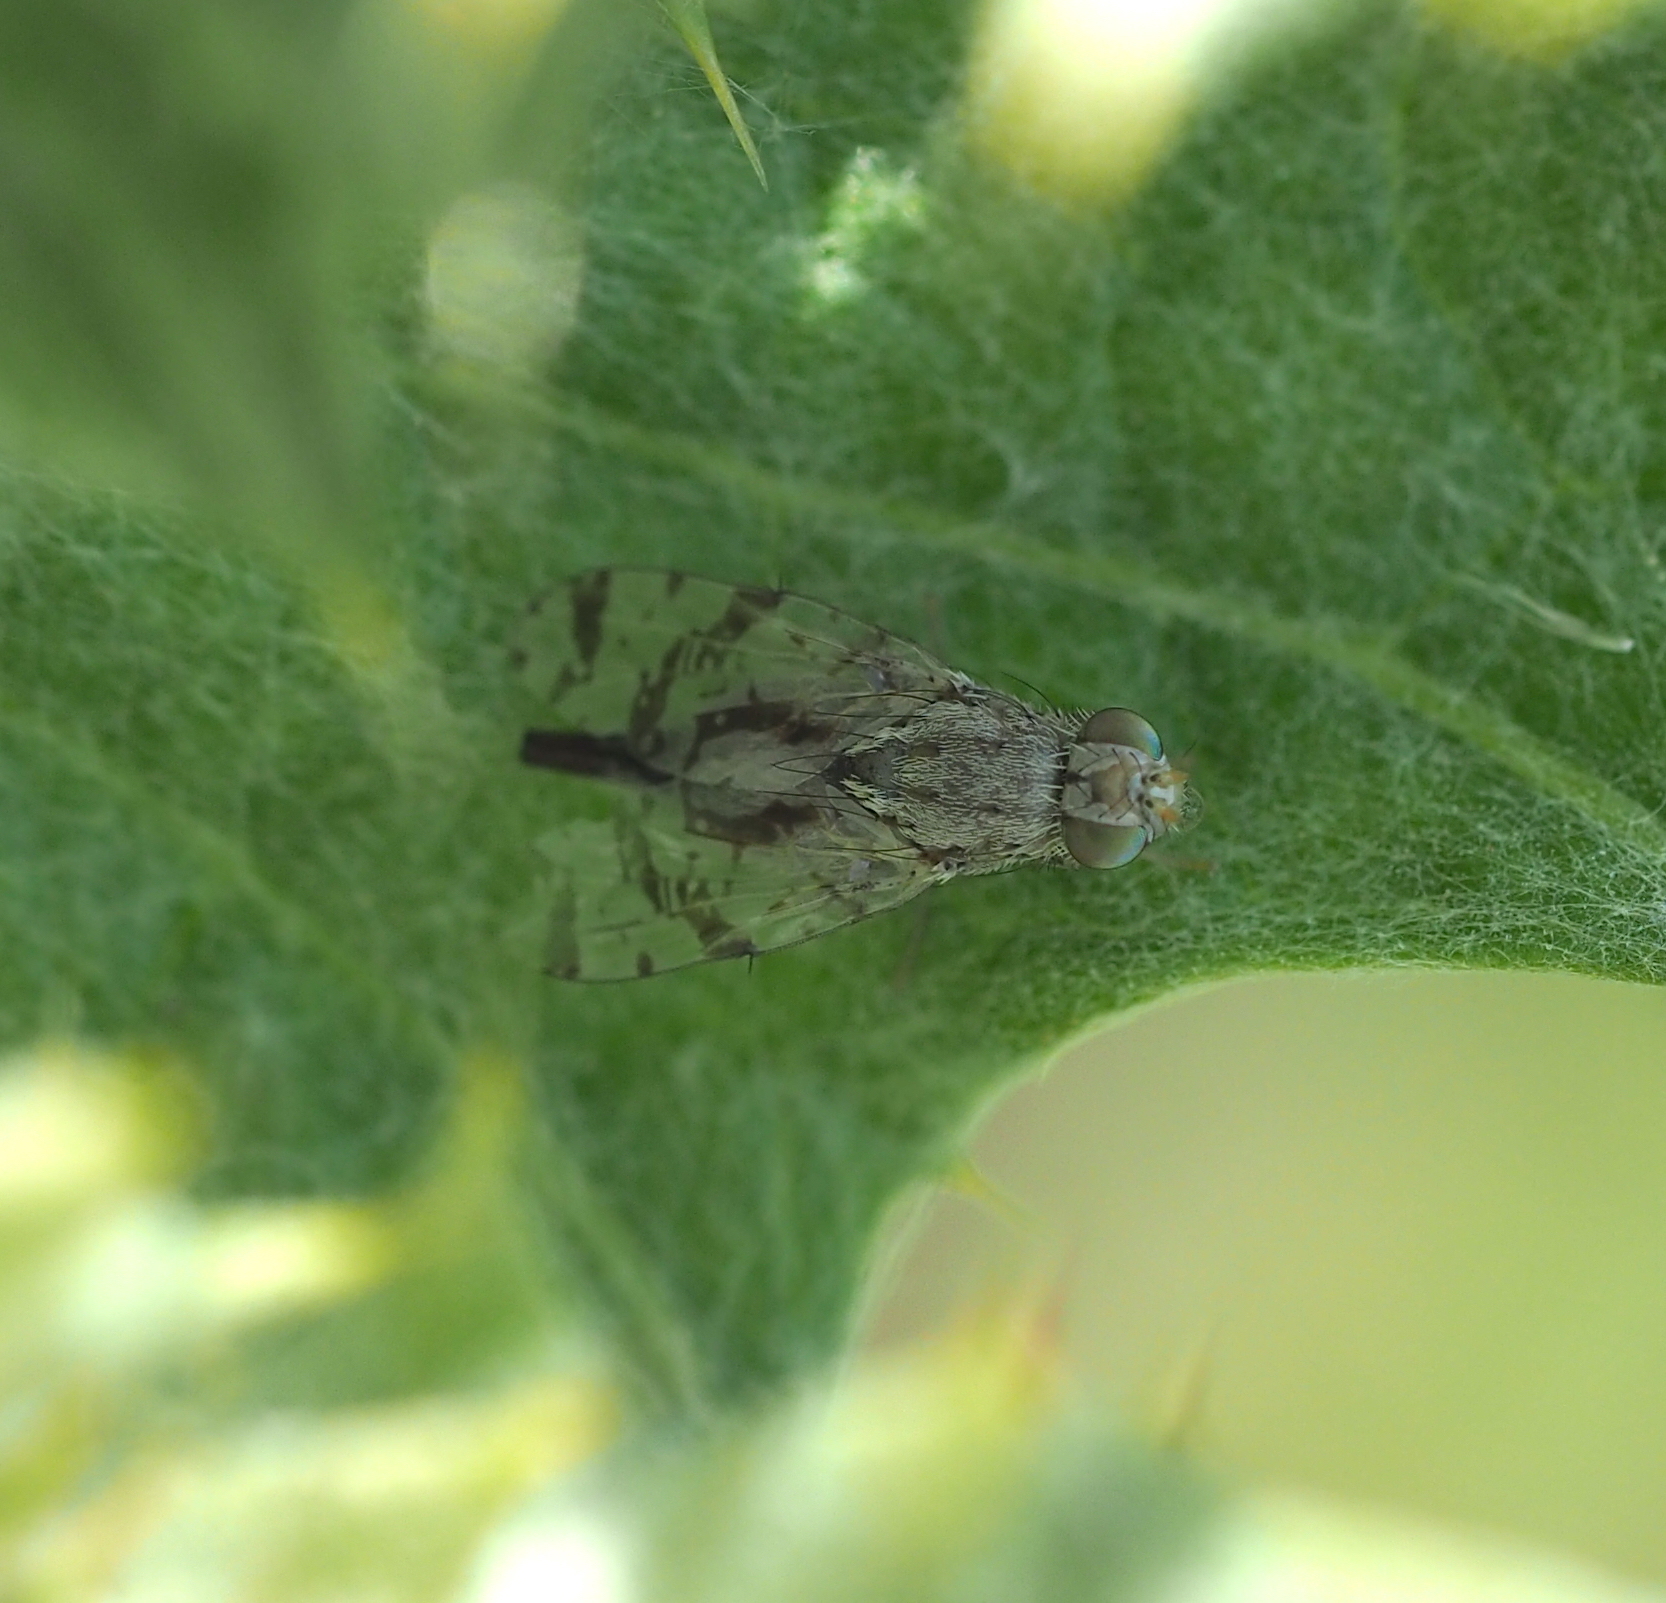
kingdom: Animalia
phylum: Arthropoda
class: Insecta
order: Diptera
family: Tephritidae
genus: Tephritis
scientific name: Tephritis postica
